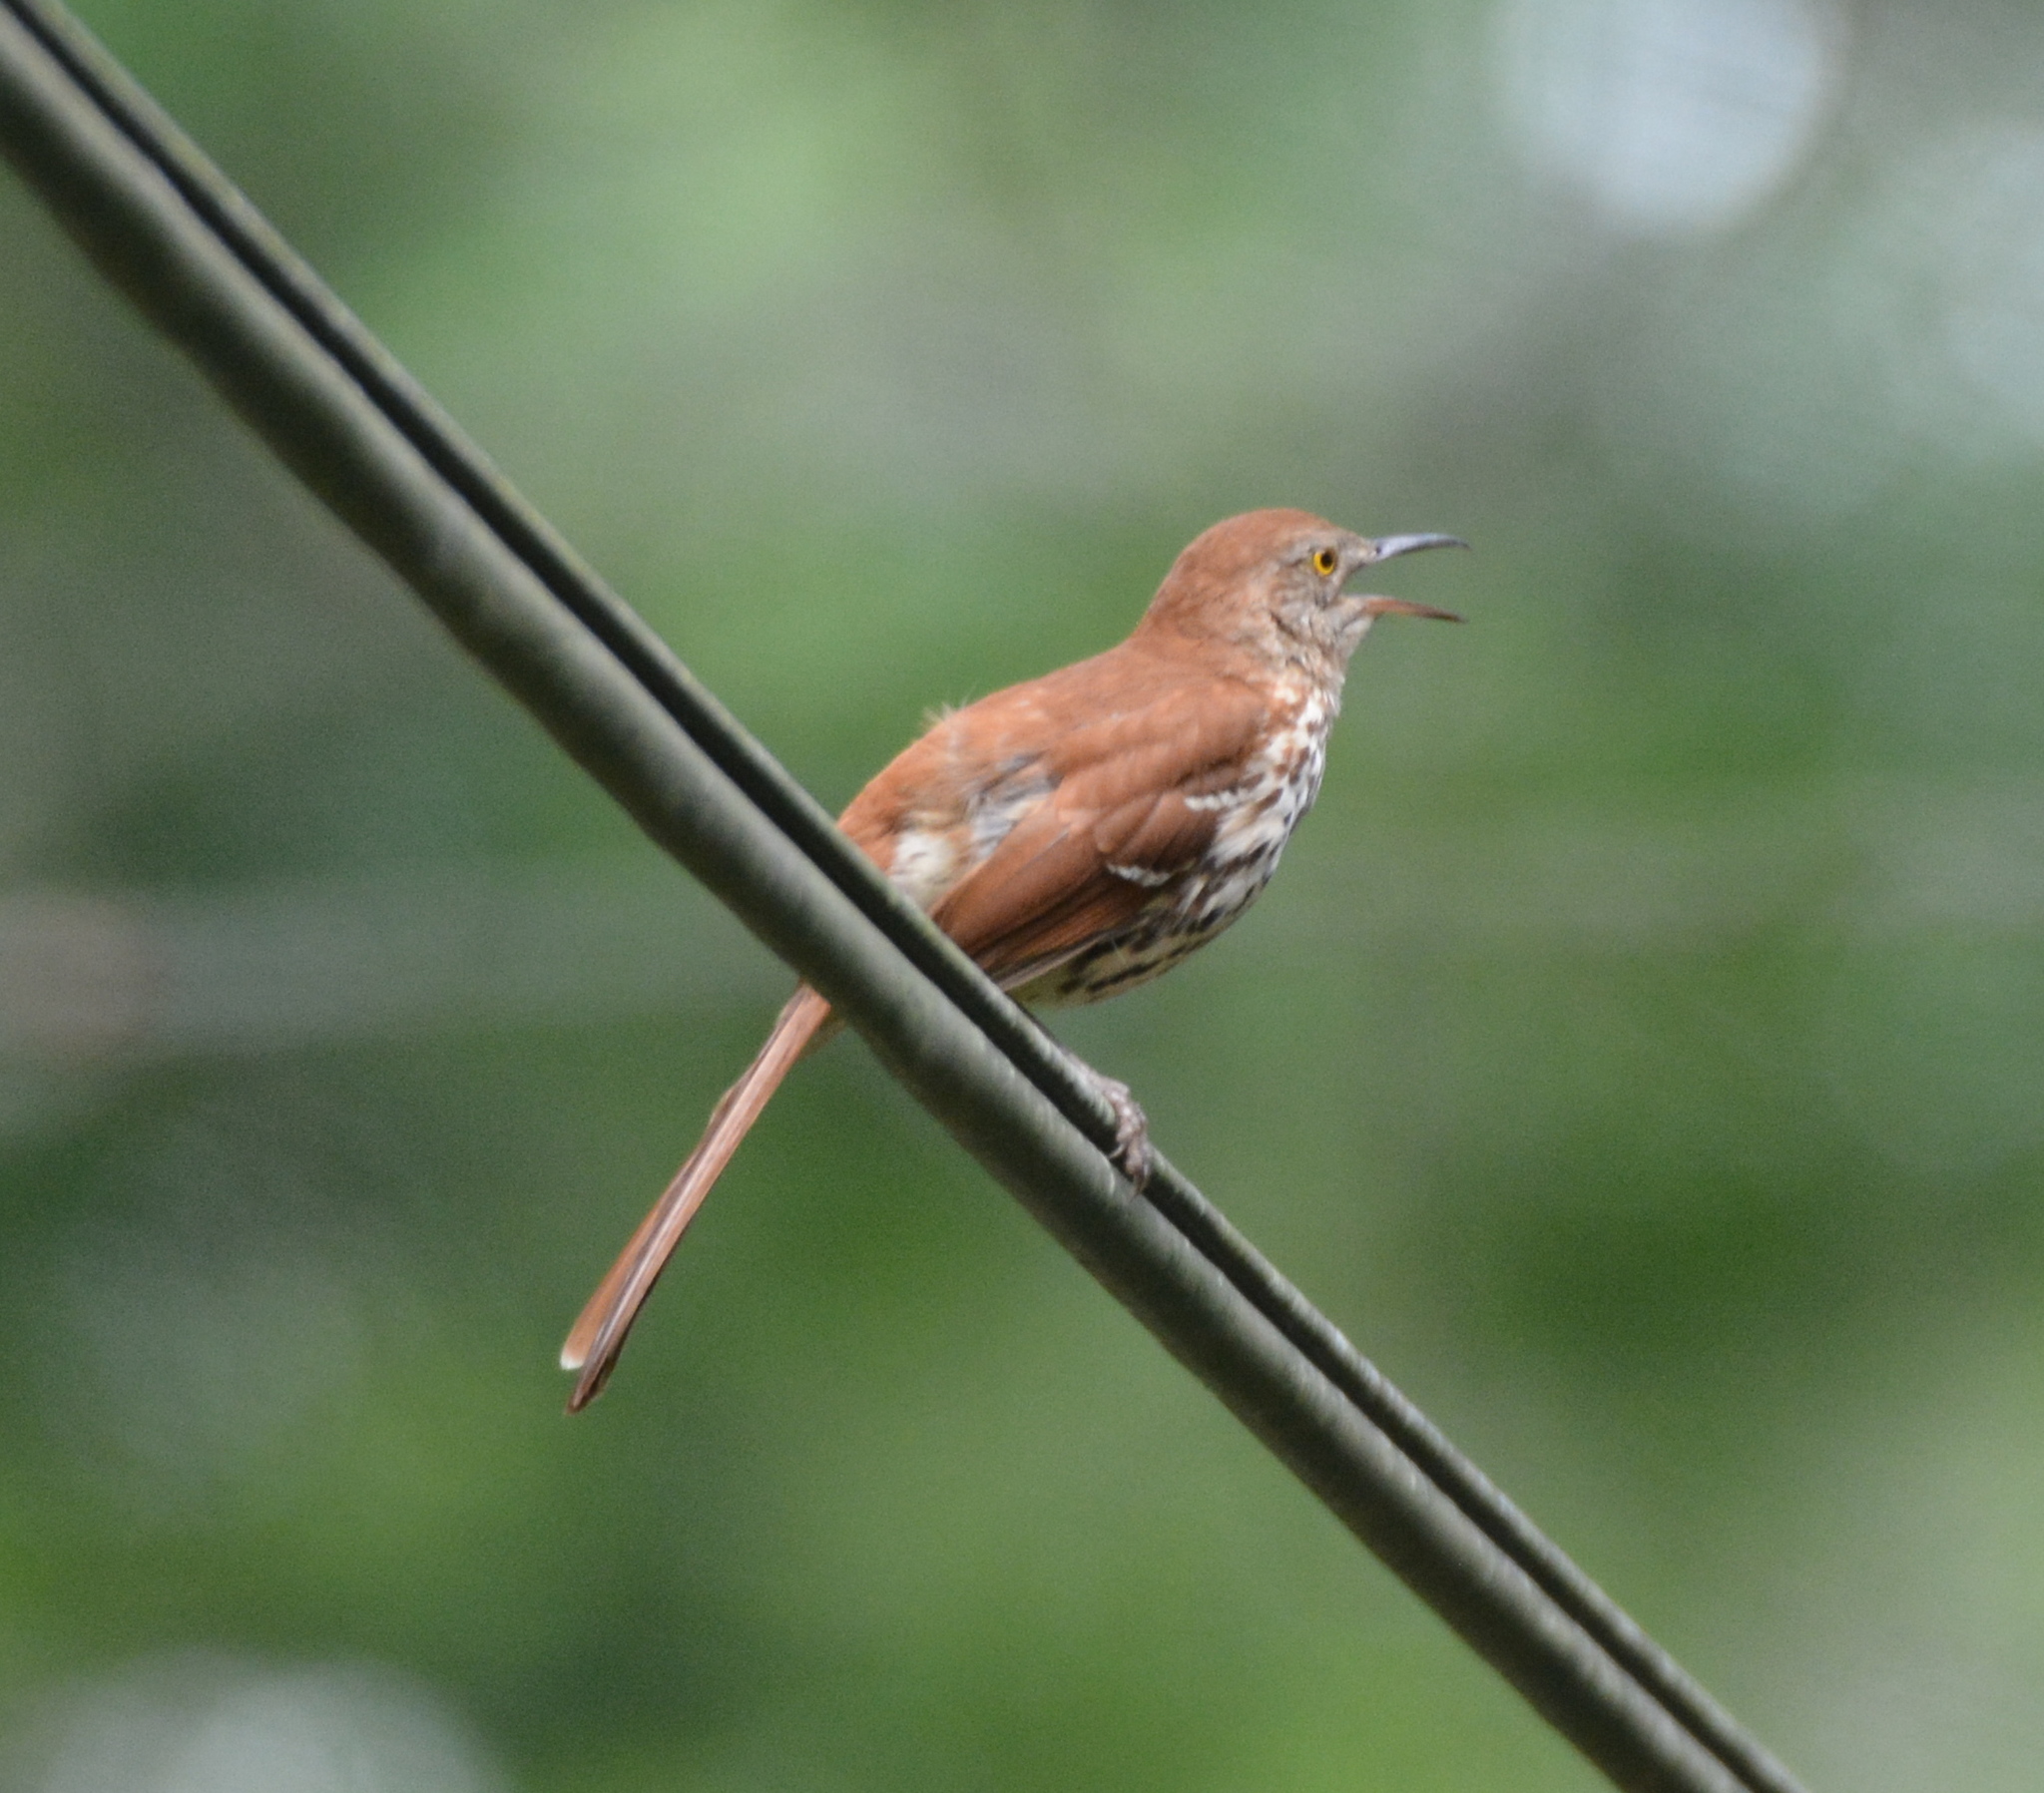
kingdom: Animalia
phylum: Chordata
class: Aves
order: Passeriformes
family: Mimidae
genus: Toxostoma
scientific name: Toxostoma rufum
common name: Brown thrasher
